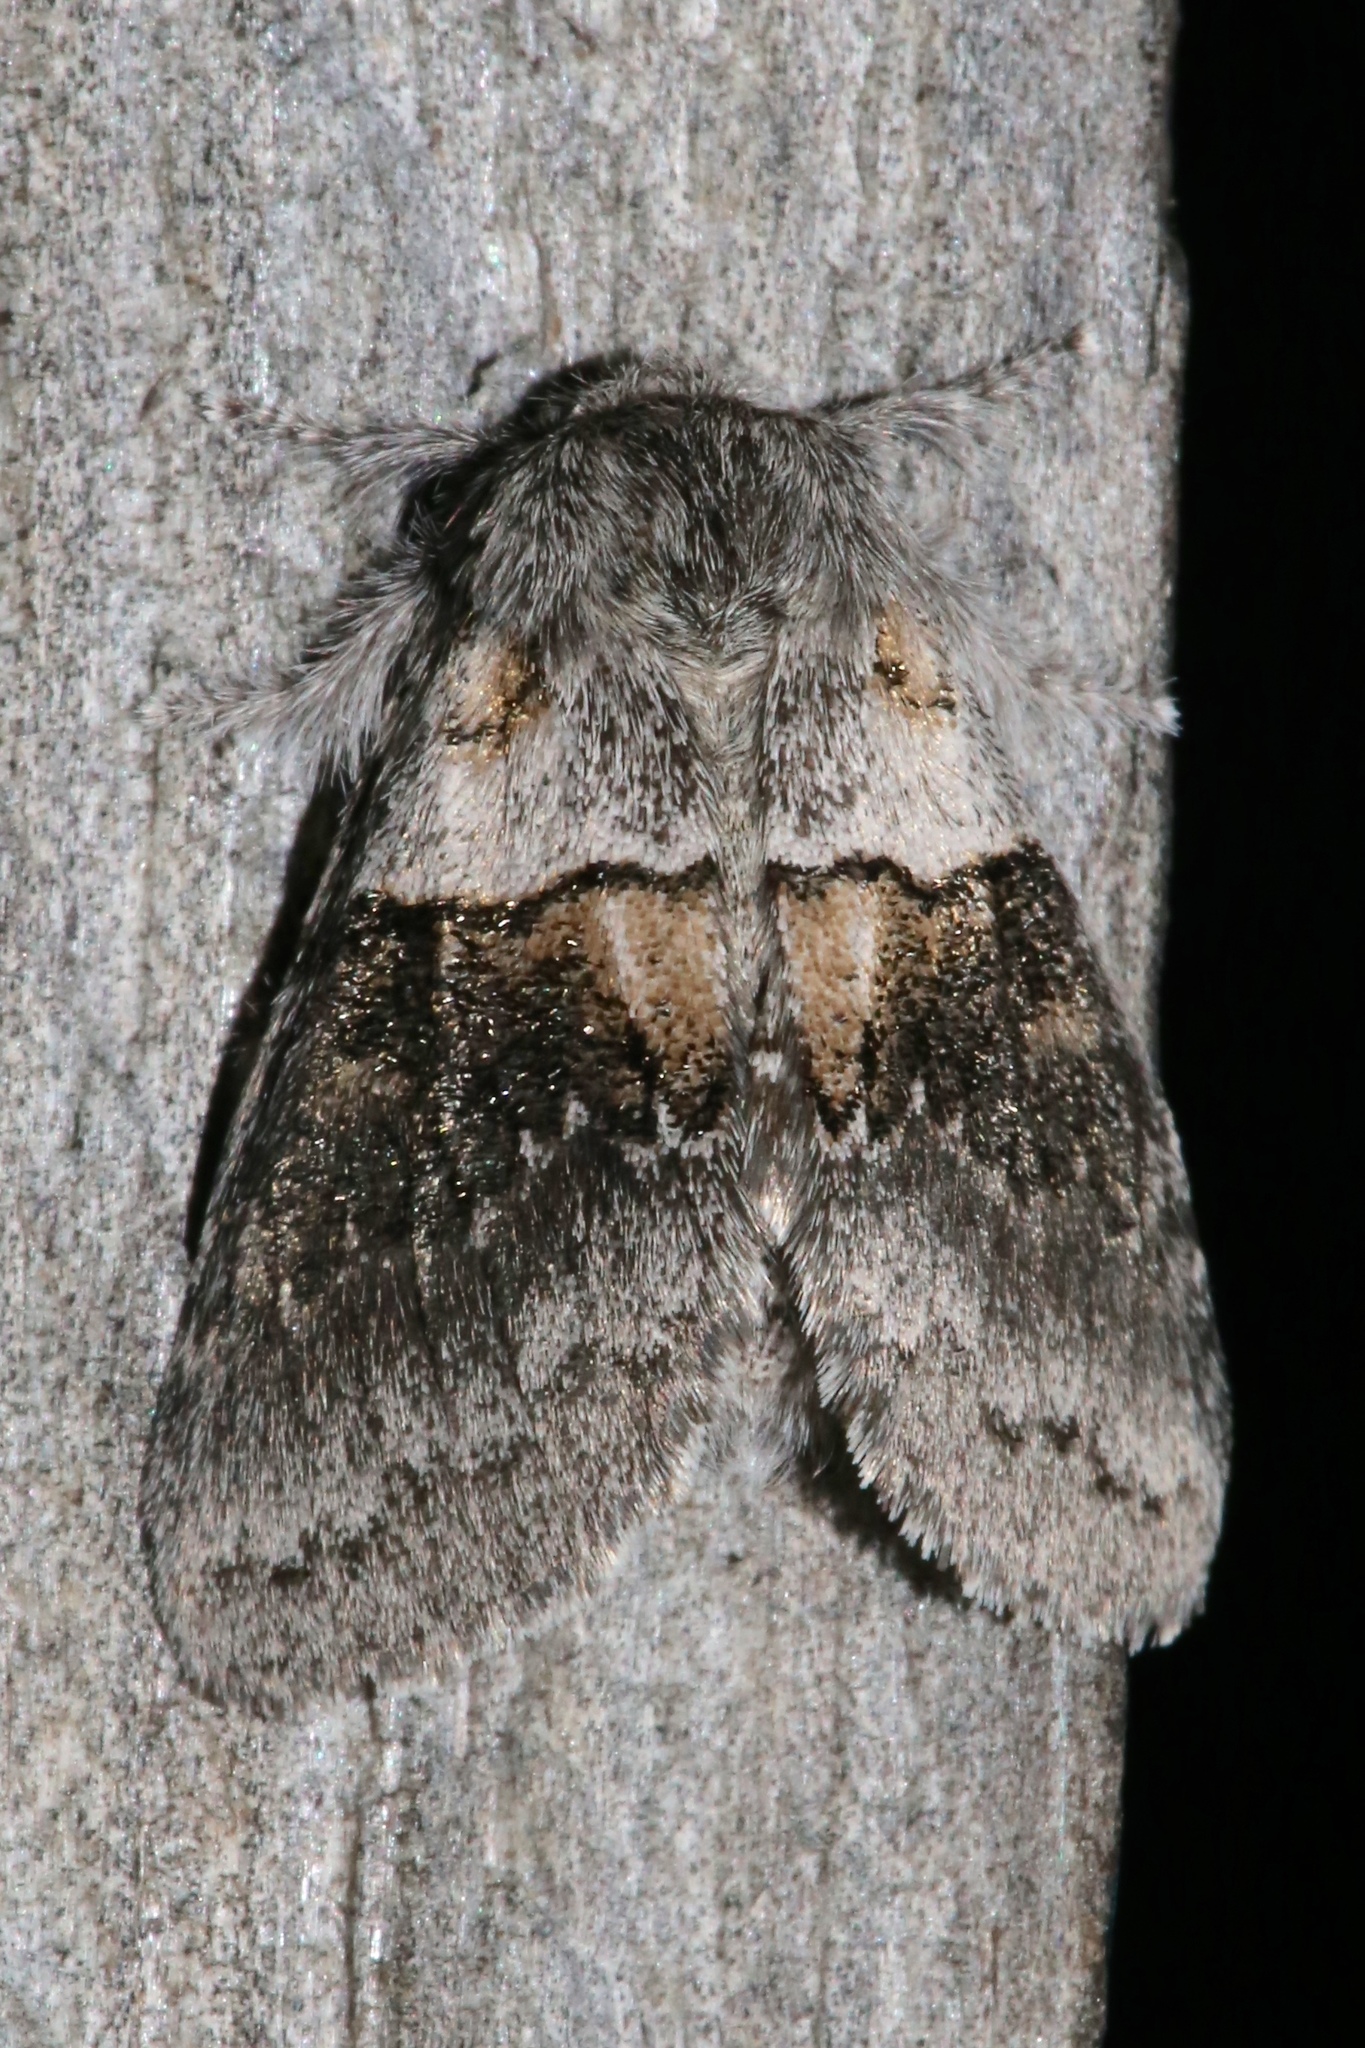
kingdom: Animalia
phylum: Arthropoda
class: Insecta
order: Lepidoptera
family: Notodontidae
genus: Gluphisia
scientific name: Gluphisia septentrionis
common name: Common gluphisia
